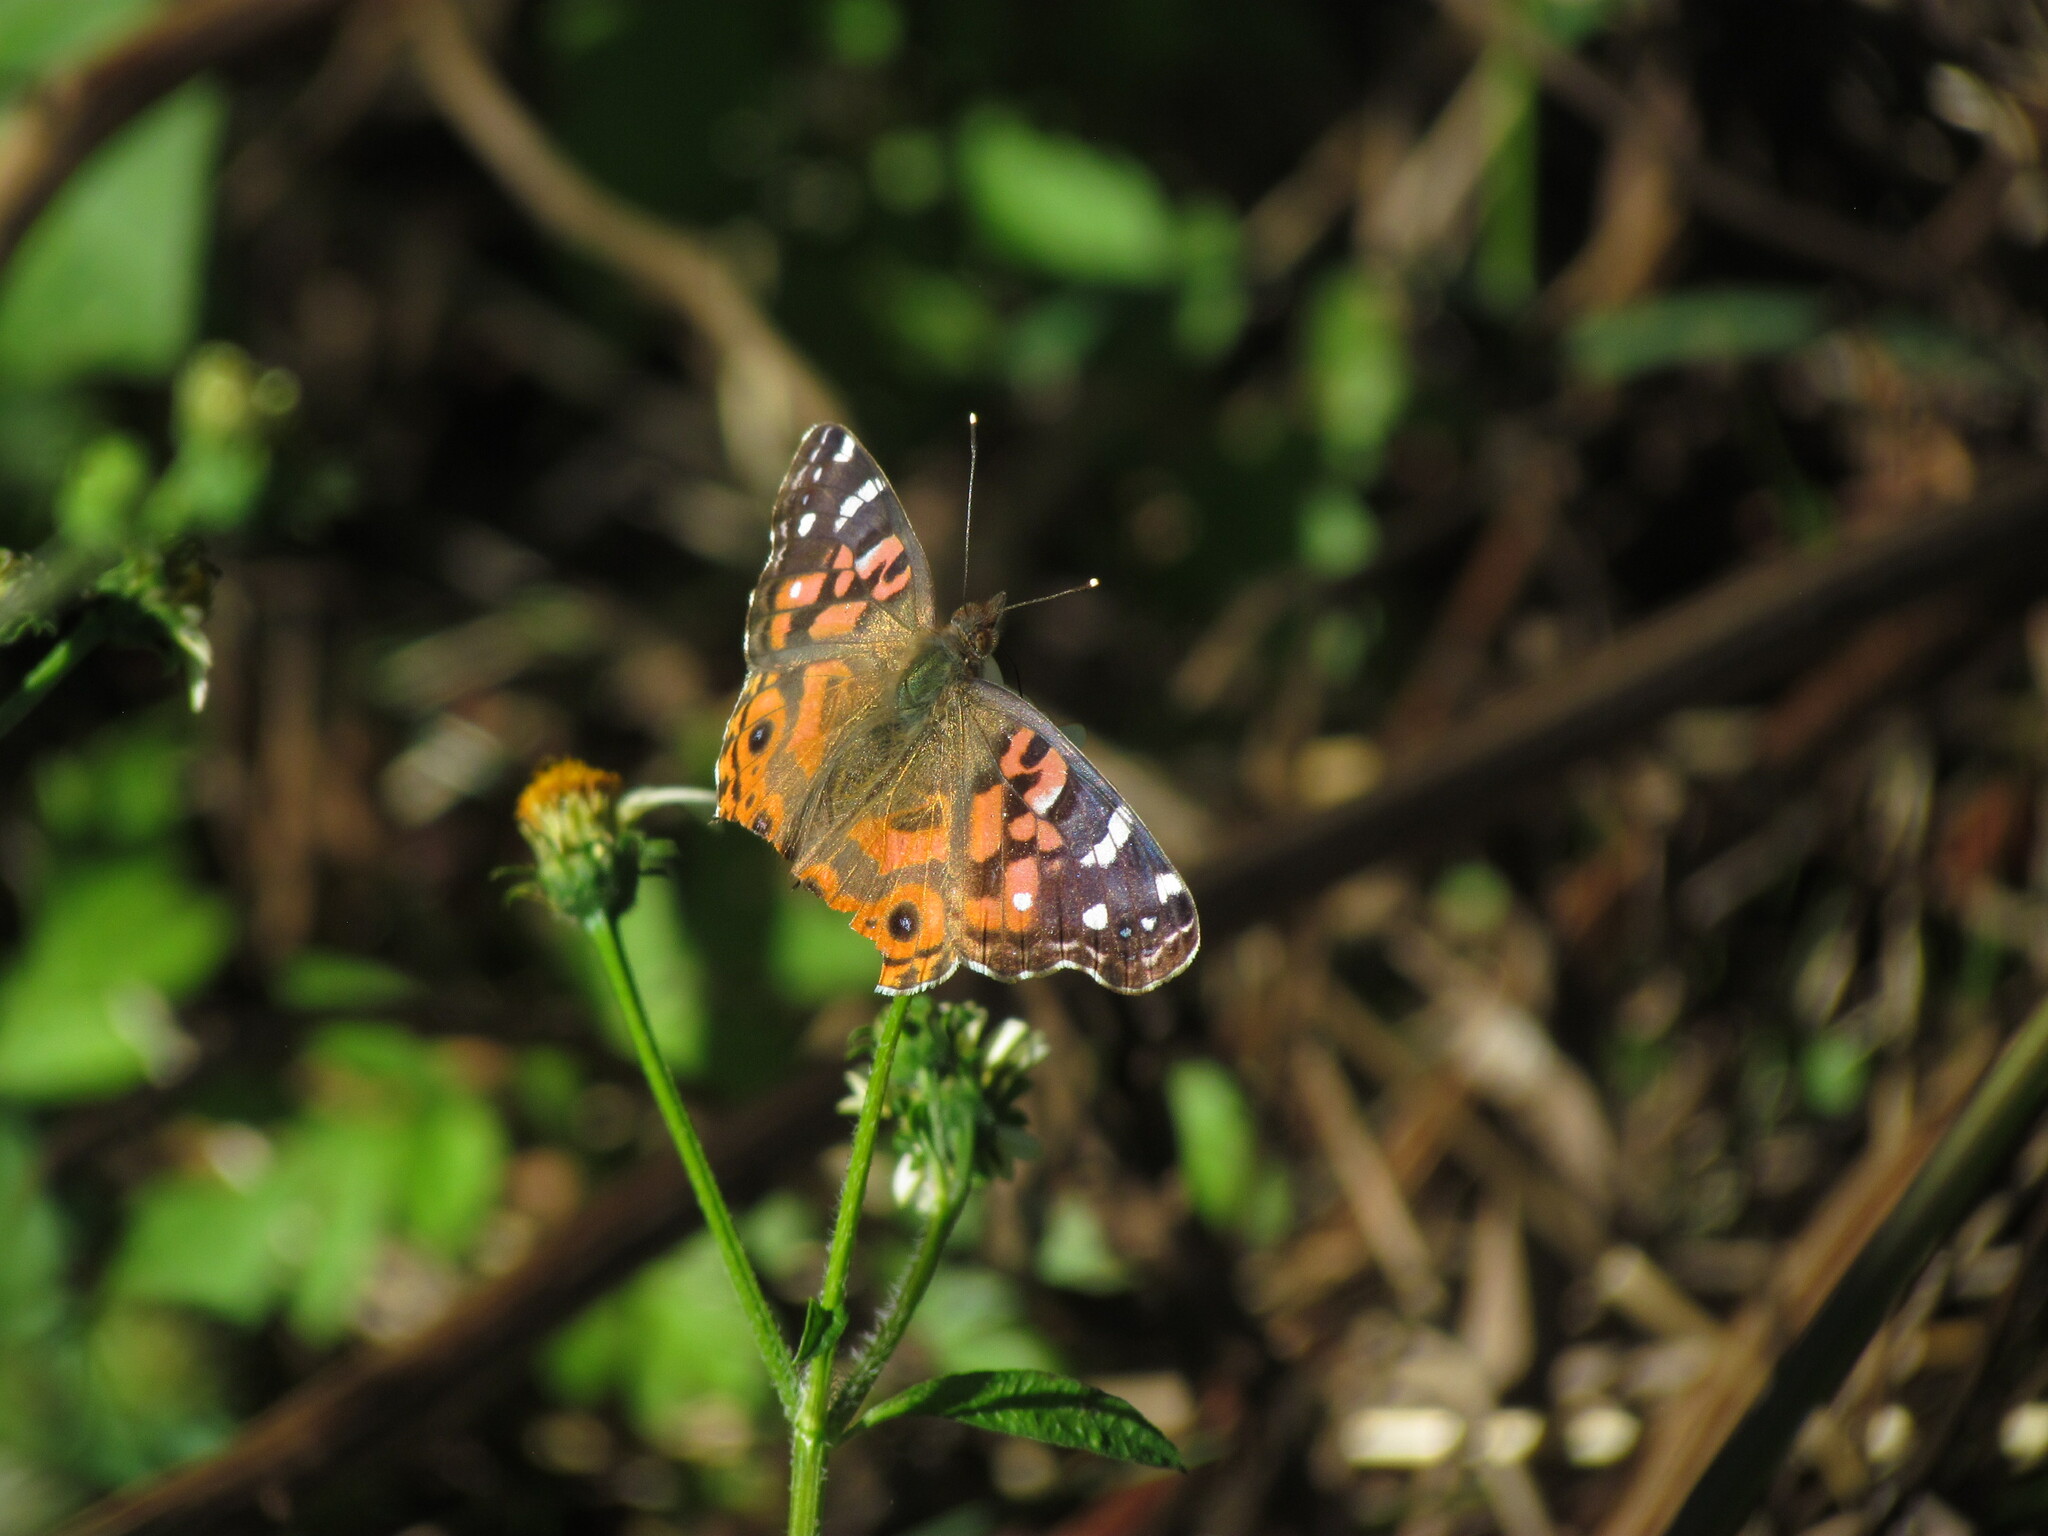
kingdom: Animalia
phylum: Arthropoda
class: Insecta
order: Lepidoptera
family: Nymphalidae
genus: Vanessa
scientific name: Vanessa braziliensis
